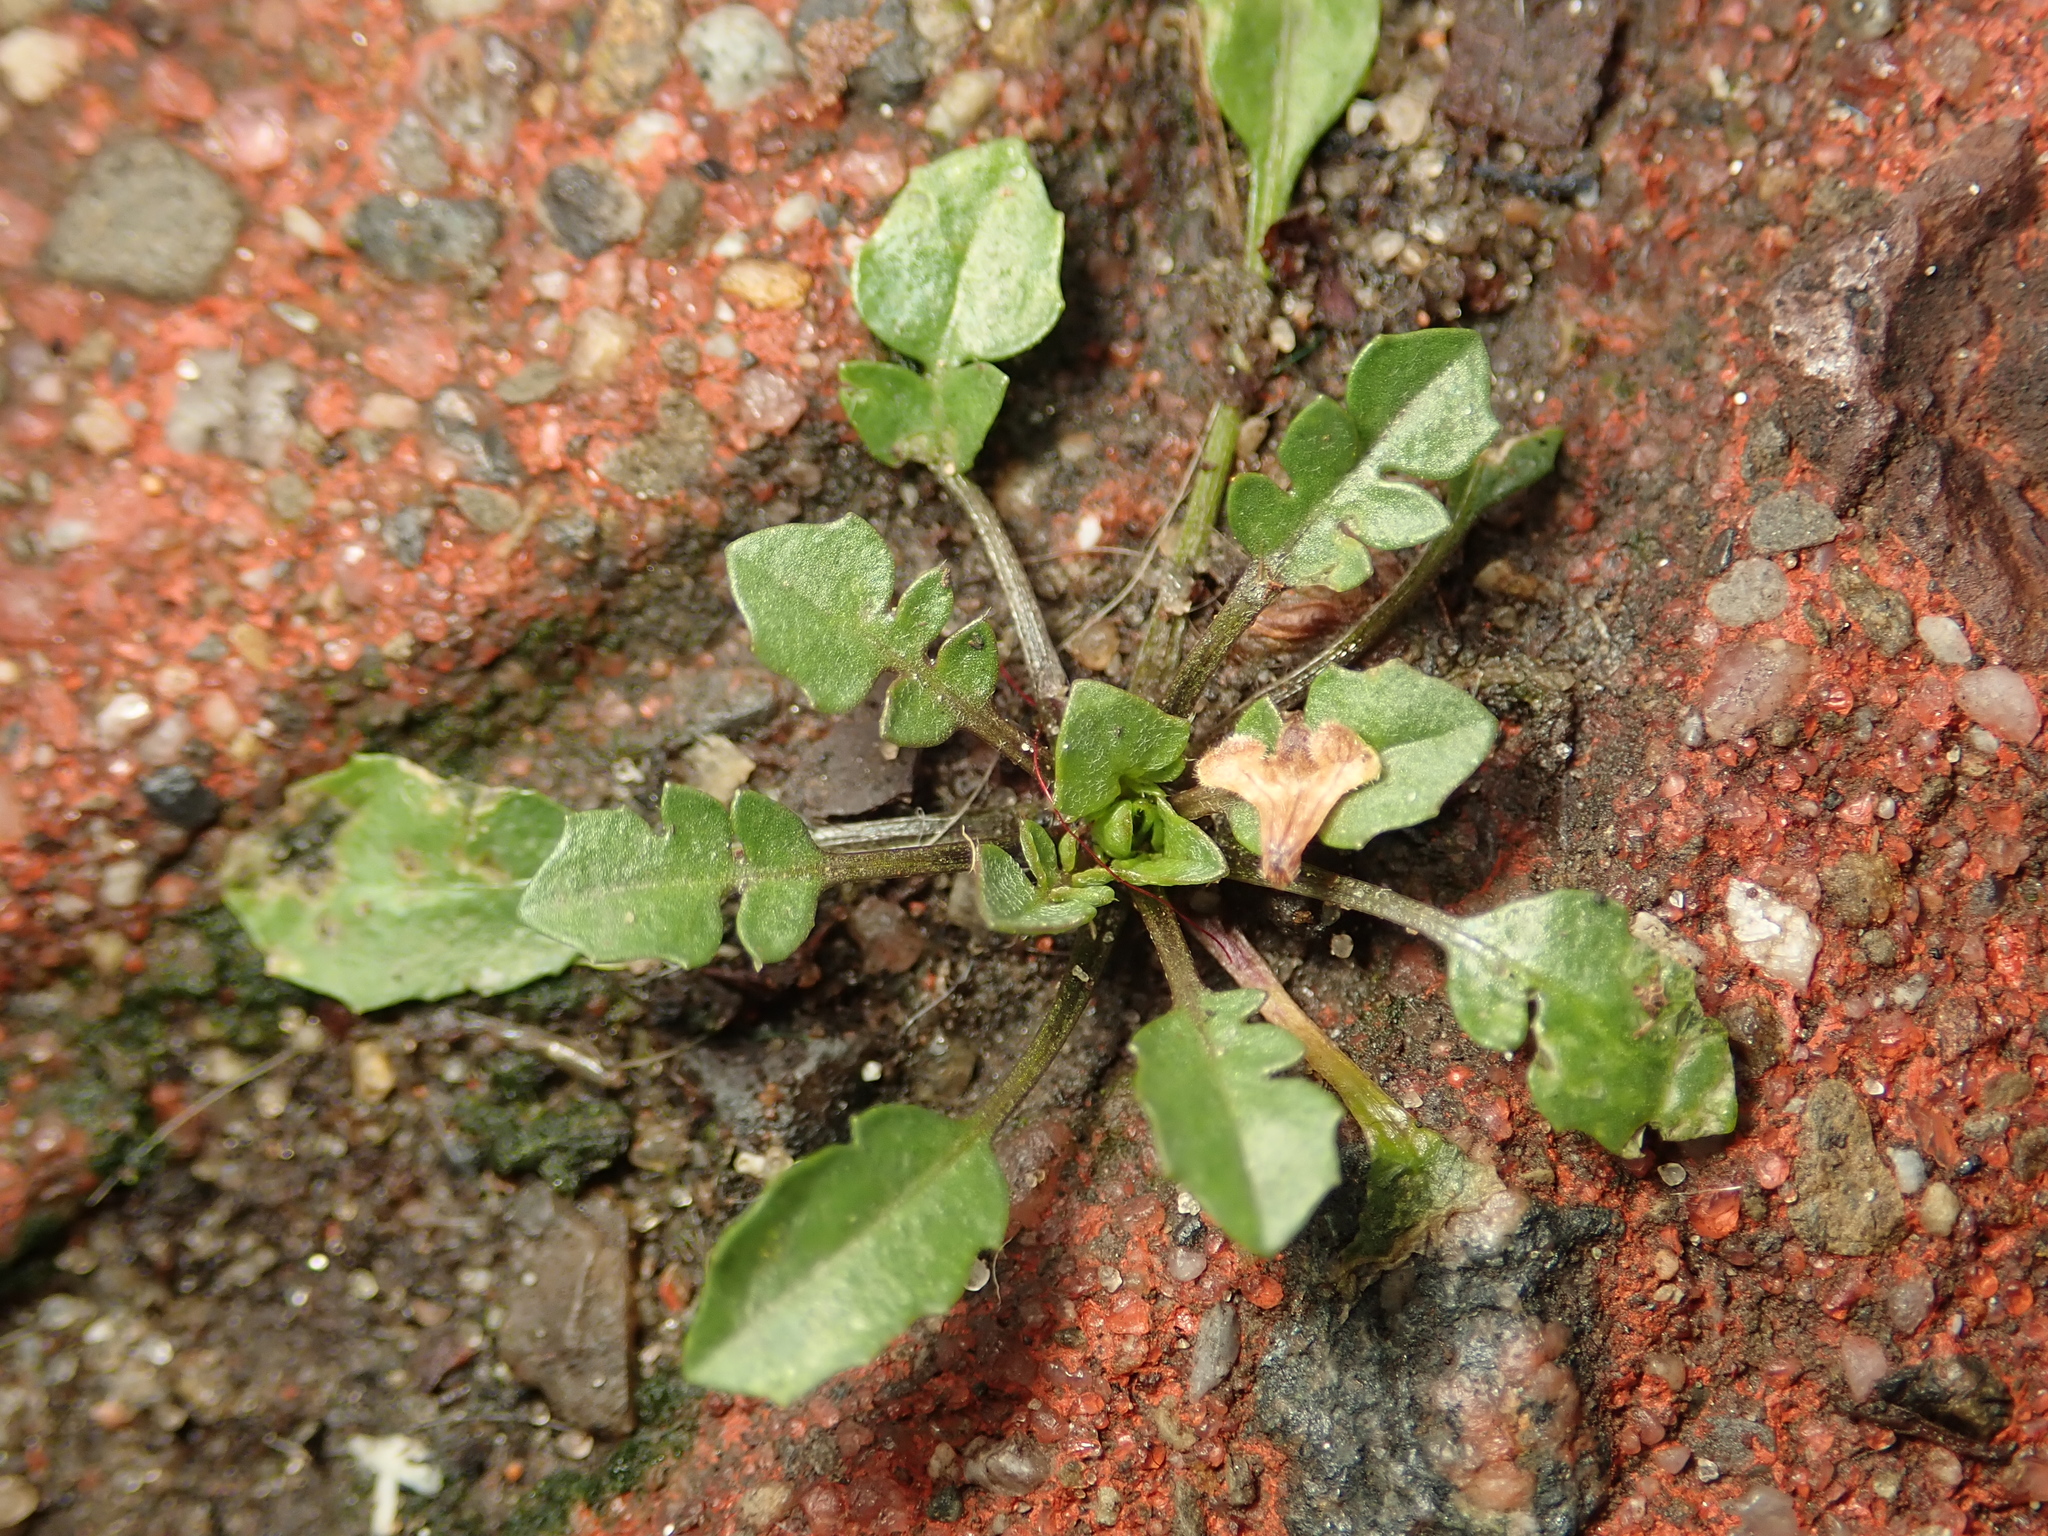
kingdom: Plantae
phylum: Tracheophyta
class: Magnoliopsida
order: Brassicales
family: Brassicaceae
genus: Cardamine
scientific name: Cardamine hirsuta
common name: Hairy bittercress
